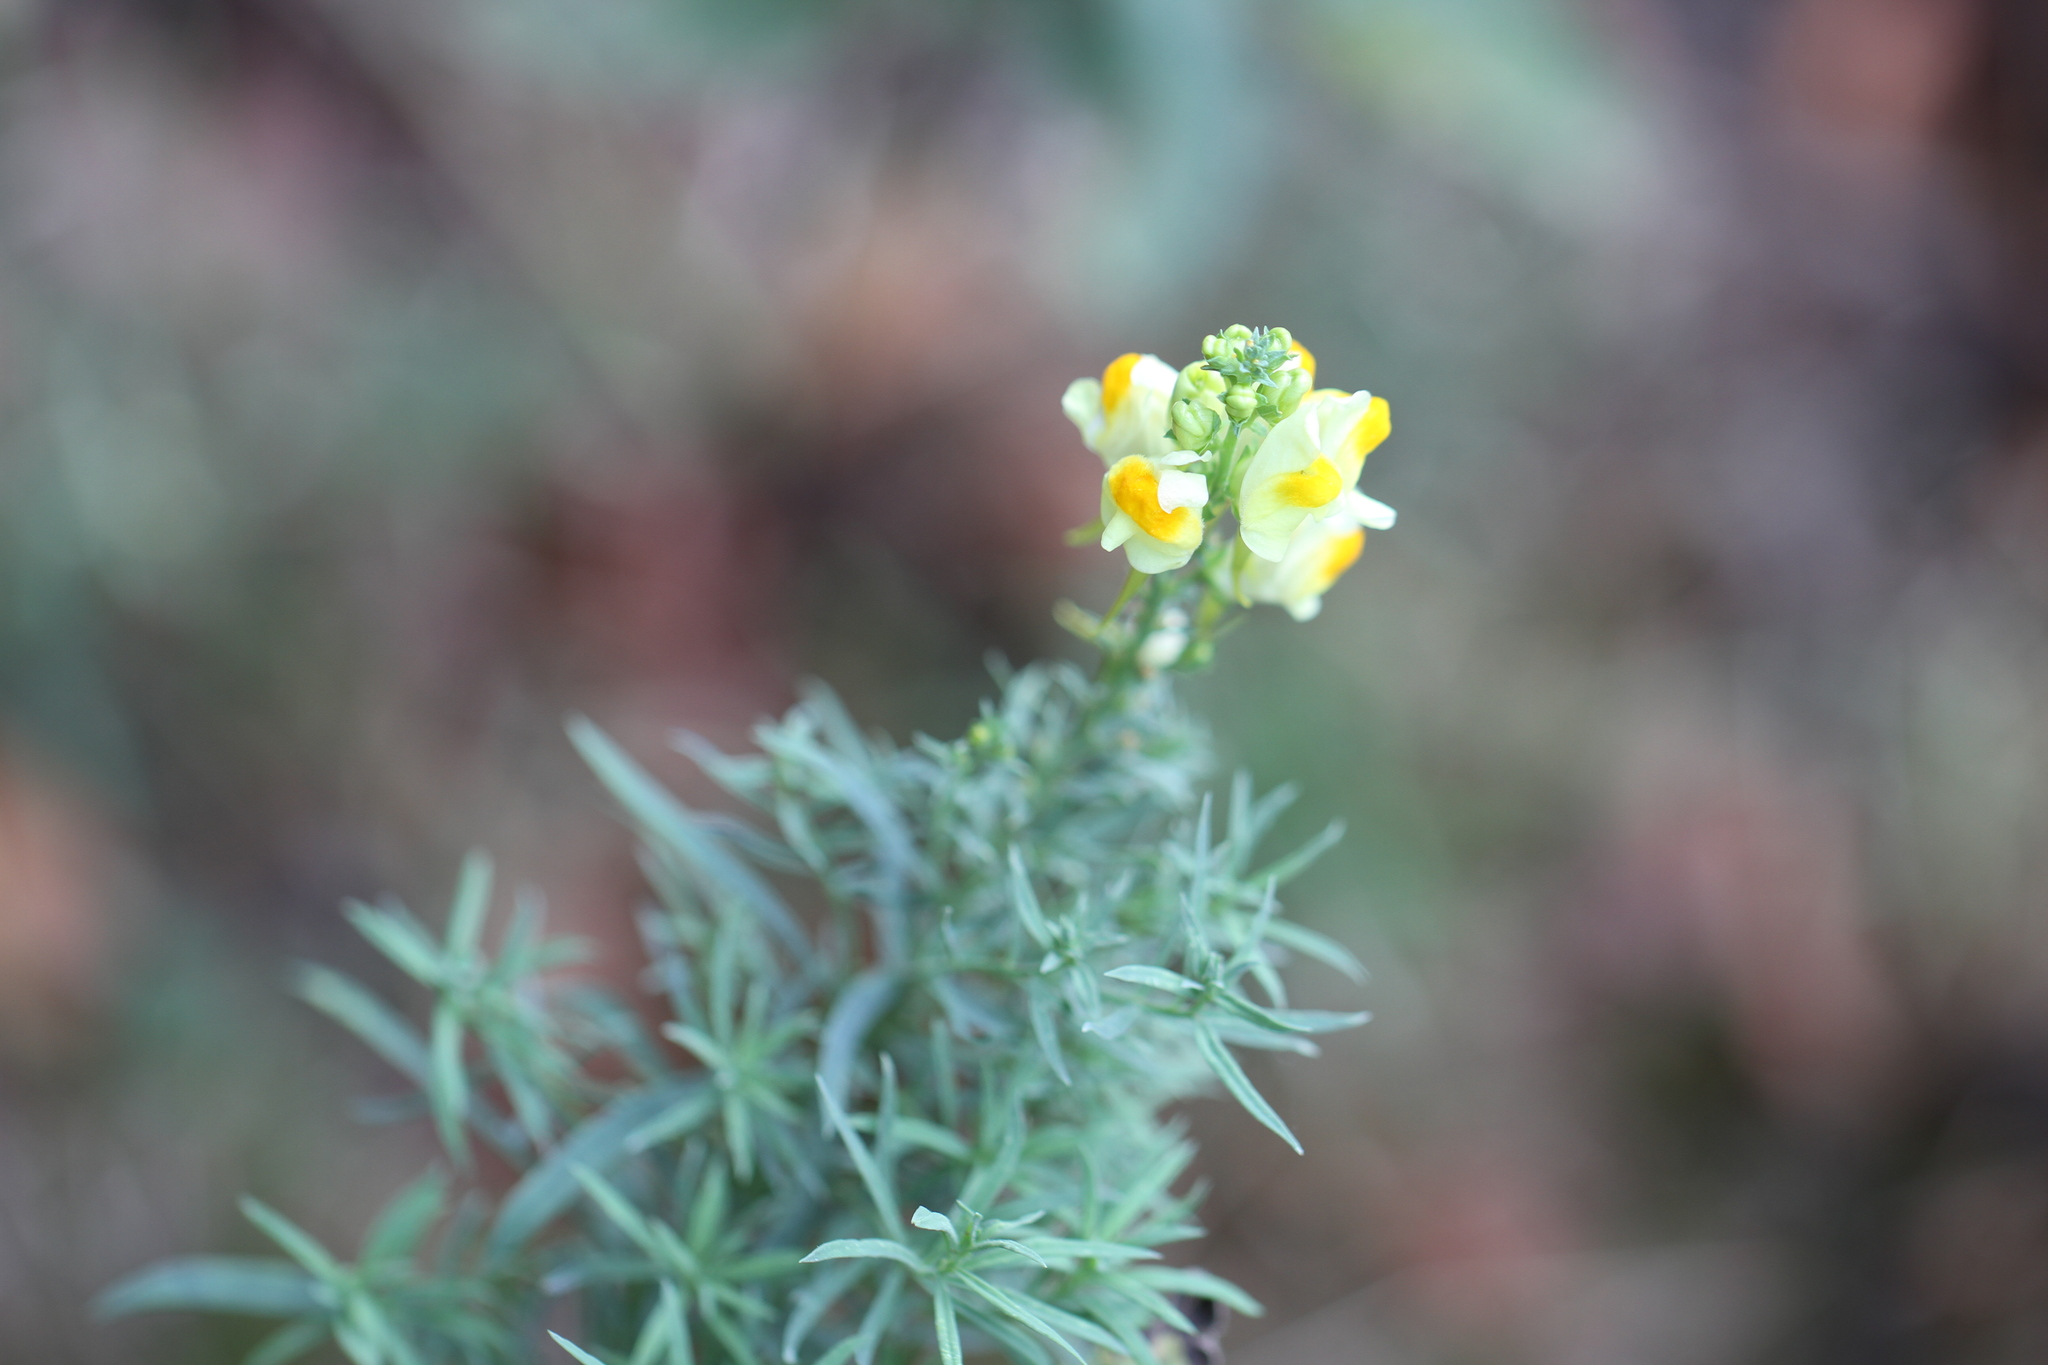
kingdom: Plantae
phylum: Tracheophyta
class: Magnoliopsida
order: Lamiales
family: Plantaginaceae
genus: Linaria
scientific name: Linaria vulgaris
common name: Butter and eggs
